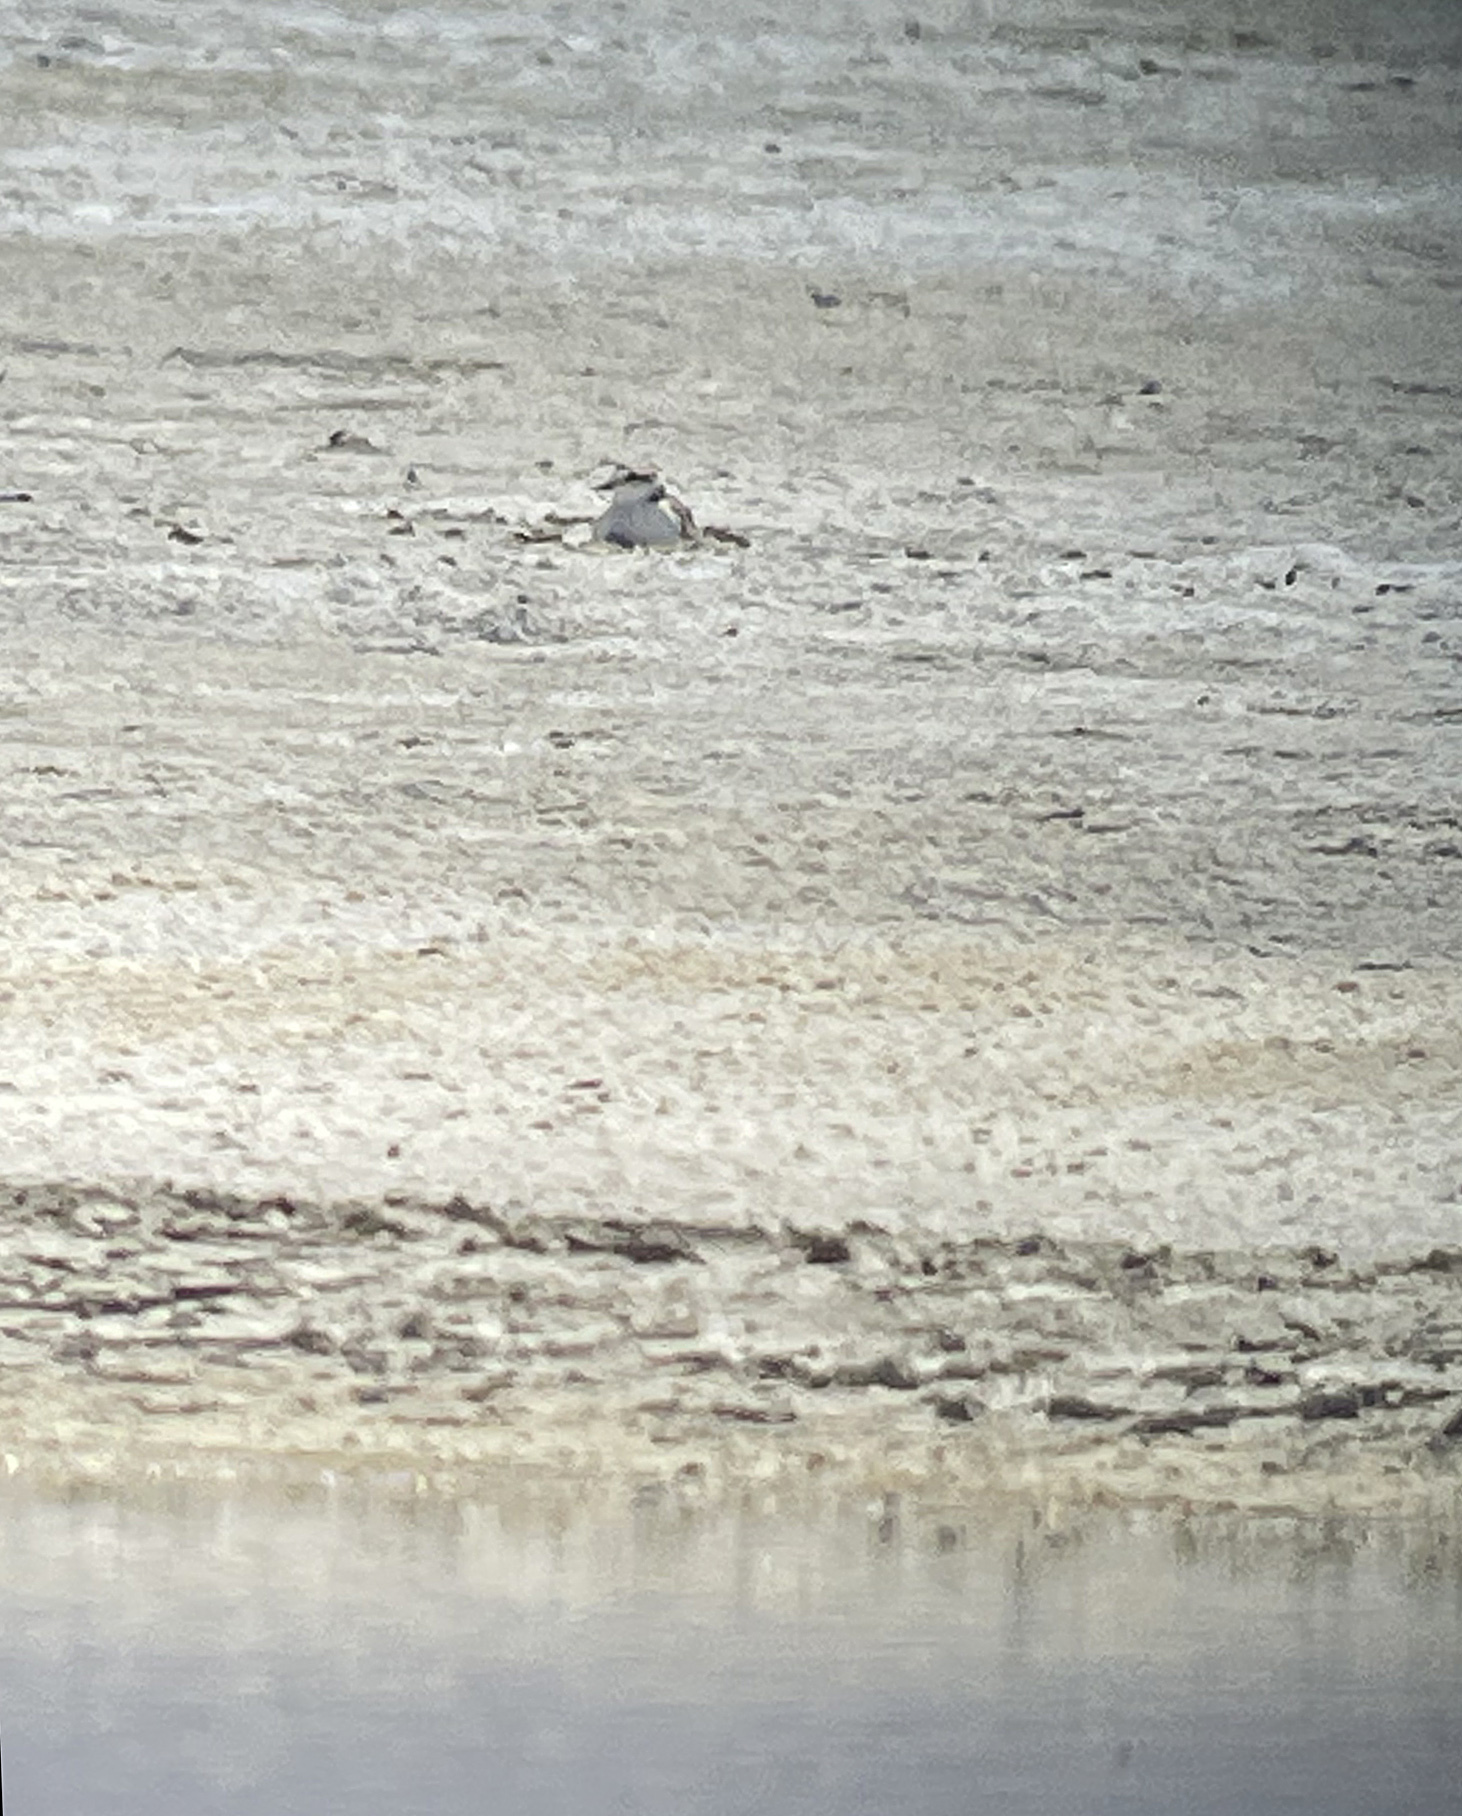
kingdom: Animalia
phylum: Chordata
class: Aves
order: Charadriiformes
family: Charadriidae
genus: Anarhynchus
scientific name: Anarhynchus
